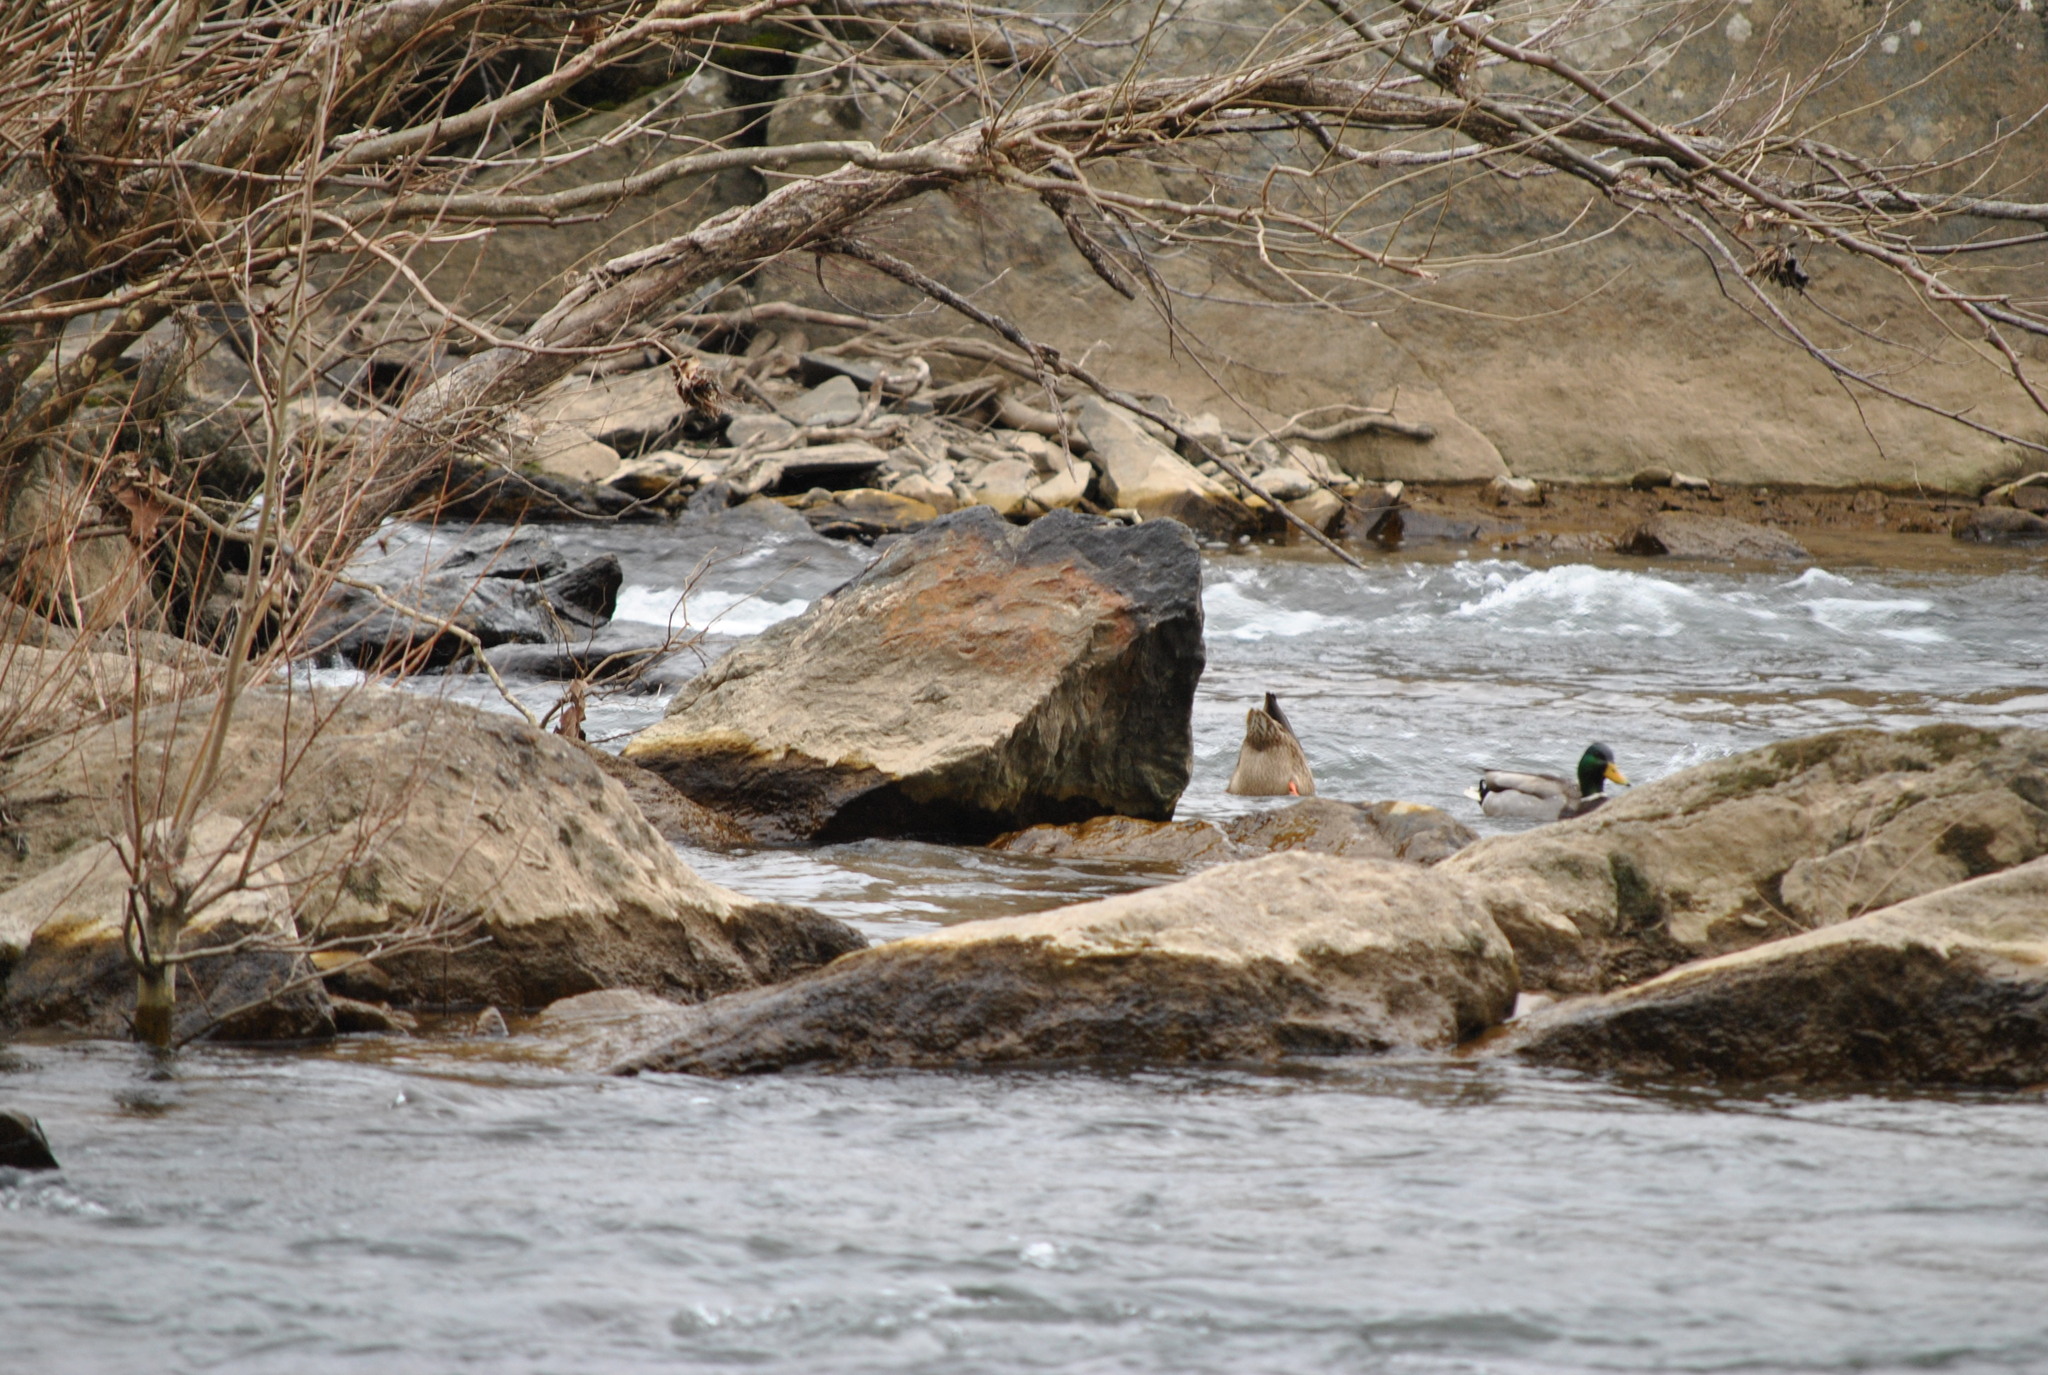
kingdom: Animalia
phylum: Chordata
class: Aves
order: Anseriformes
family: Anatidae
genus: Anas
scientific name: Anas platyrhynchos
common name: Mallard
